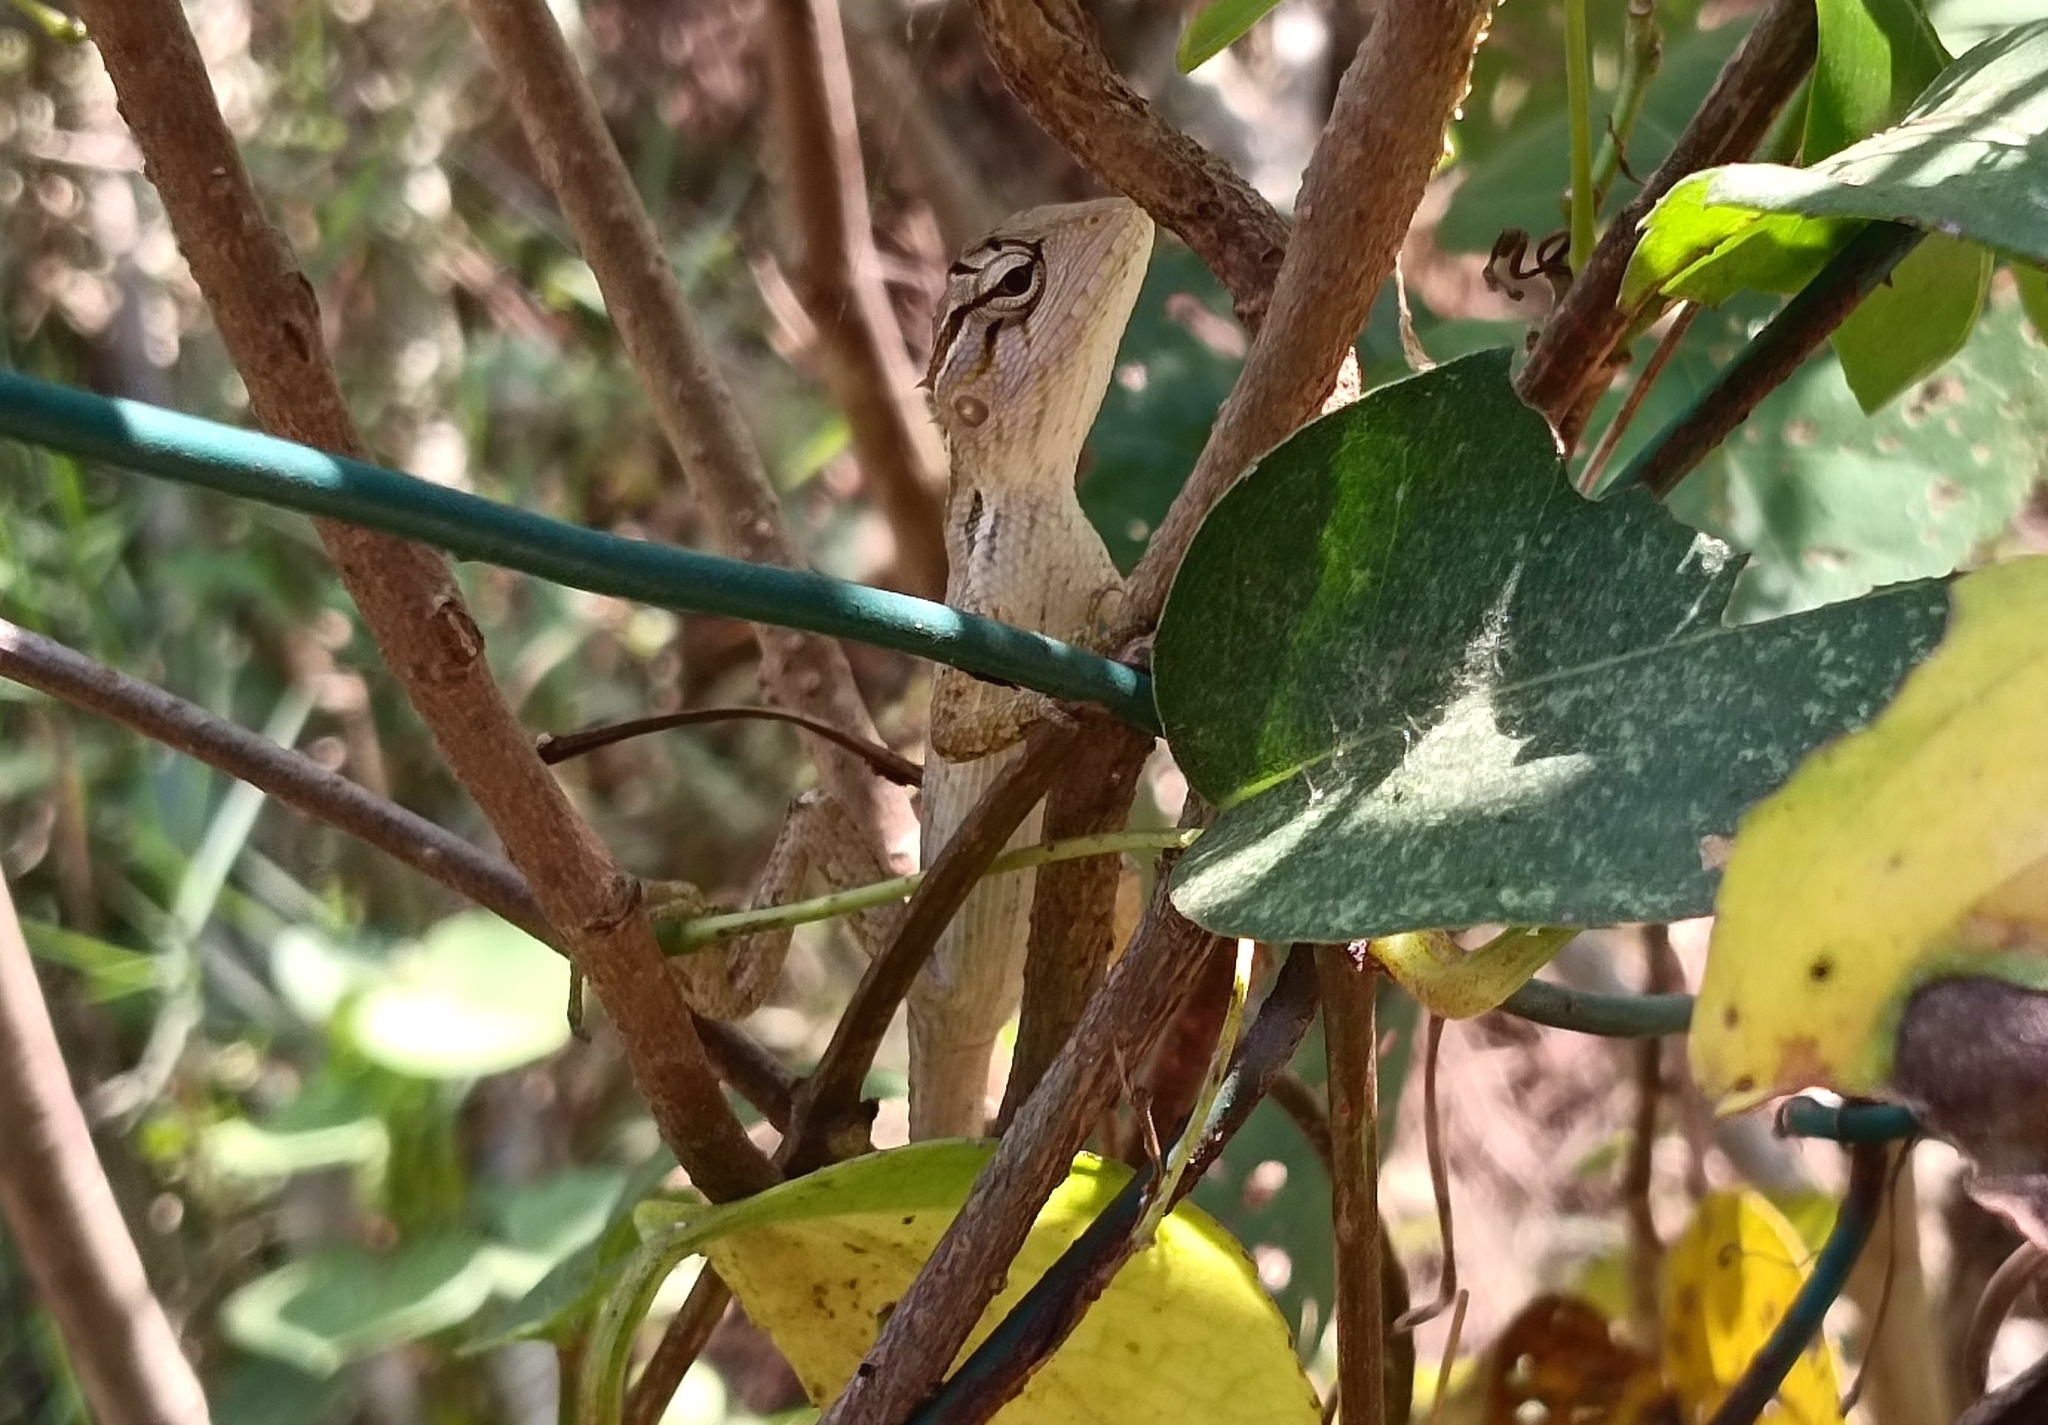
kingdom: Animalia
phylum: Chordata
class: Squamata
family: Agamidae
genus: Calotes
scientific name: Calotes versicolor
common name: Oriental garden lizard
